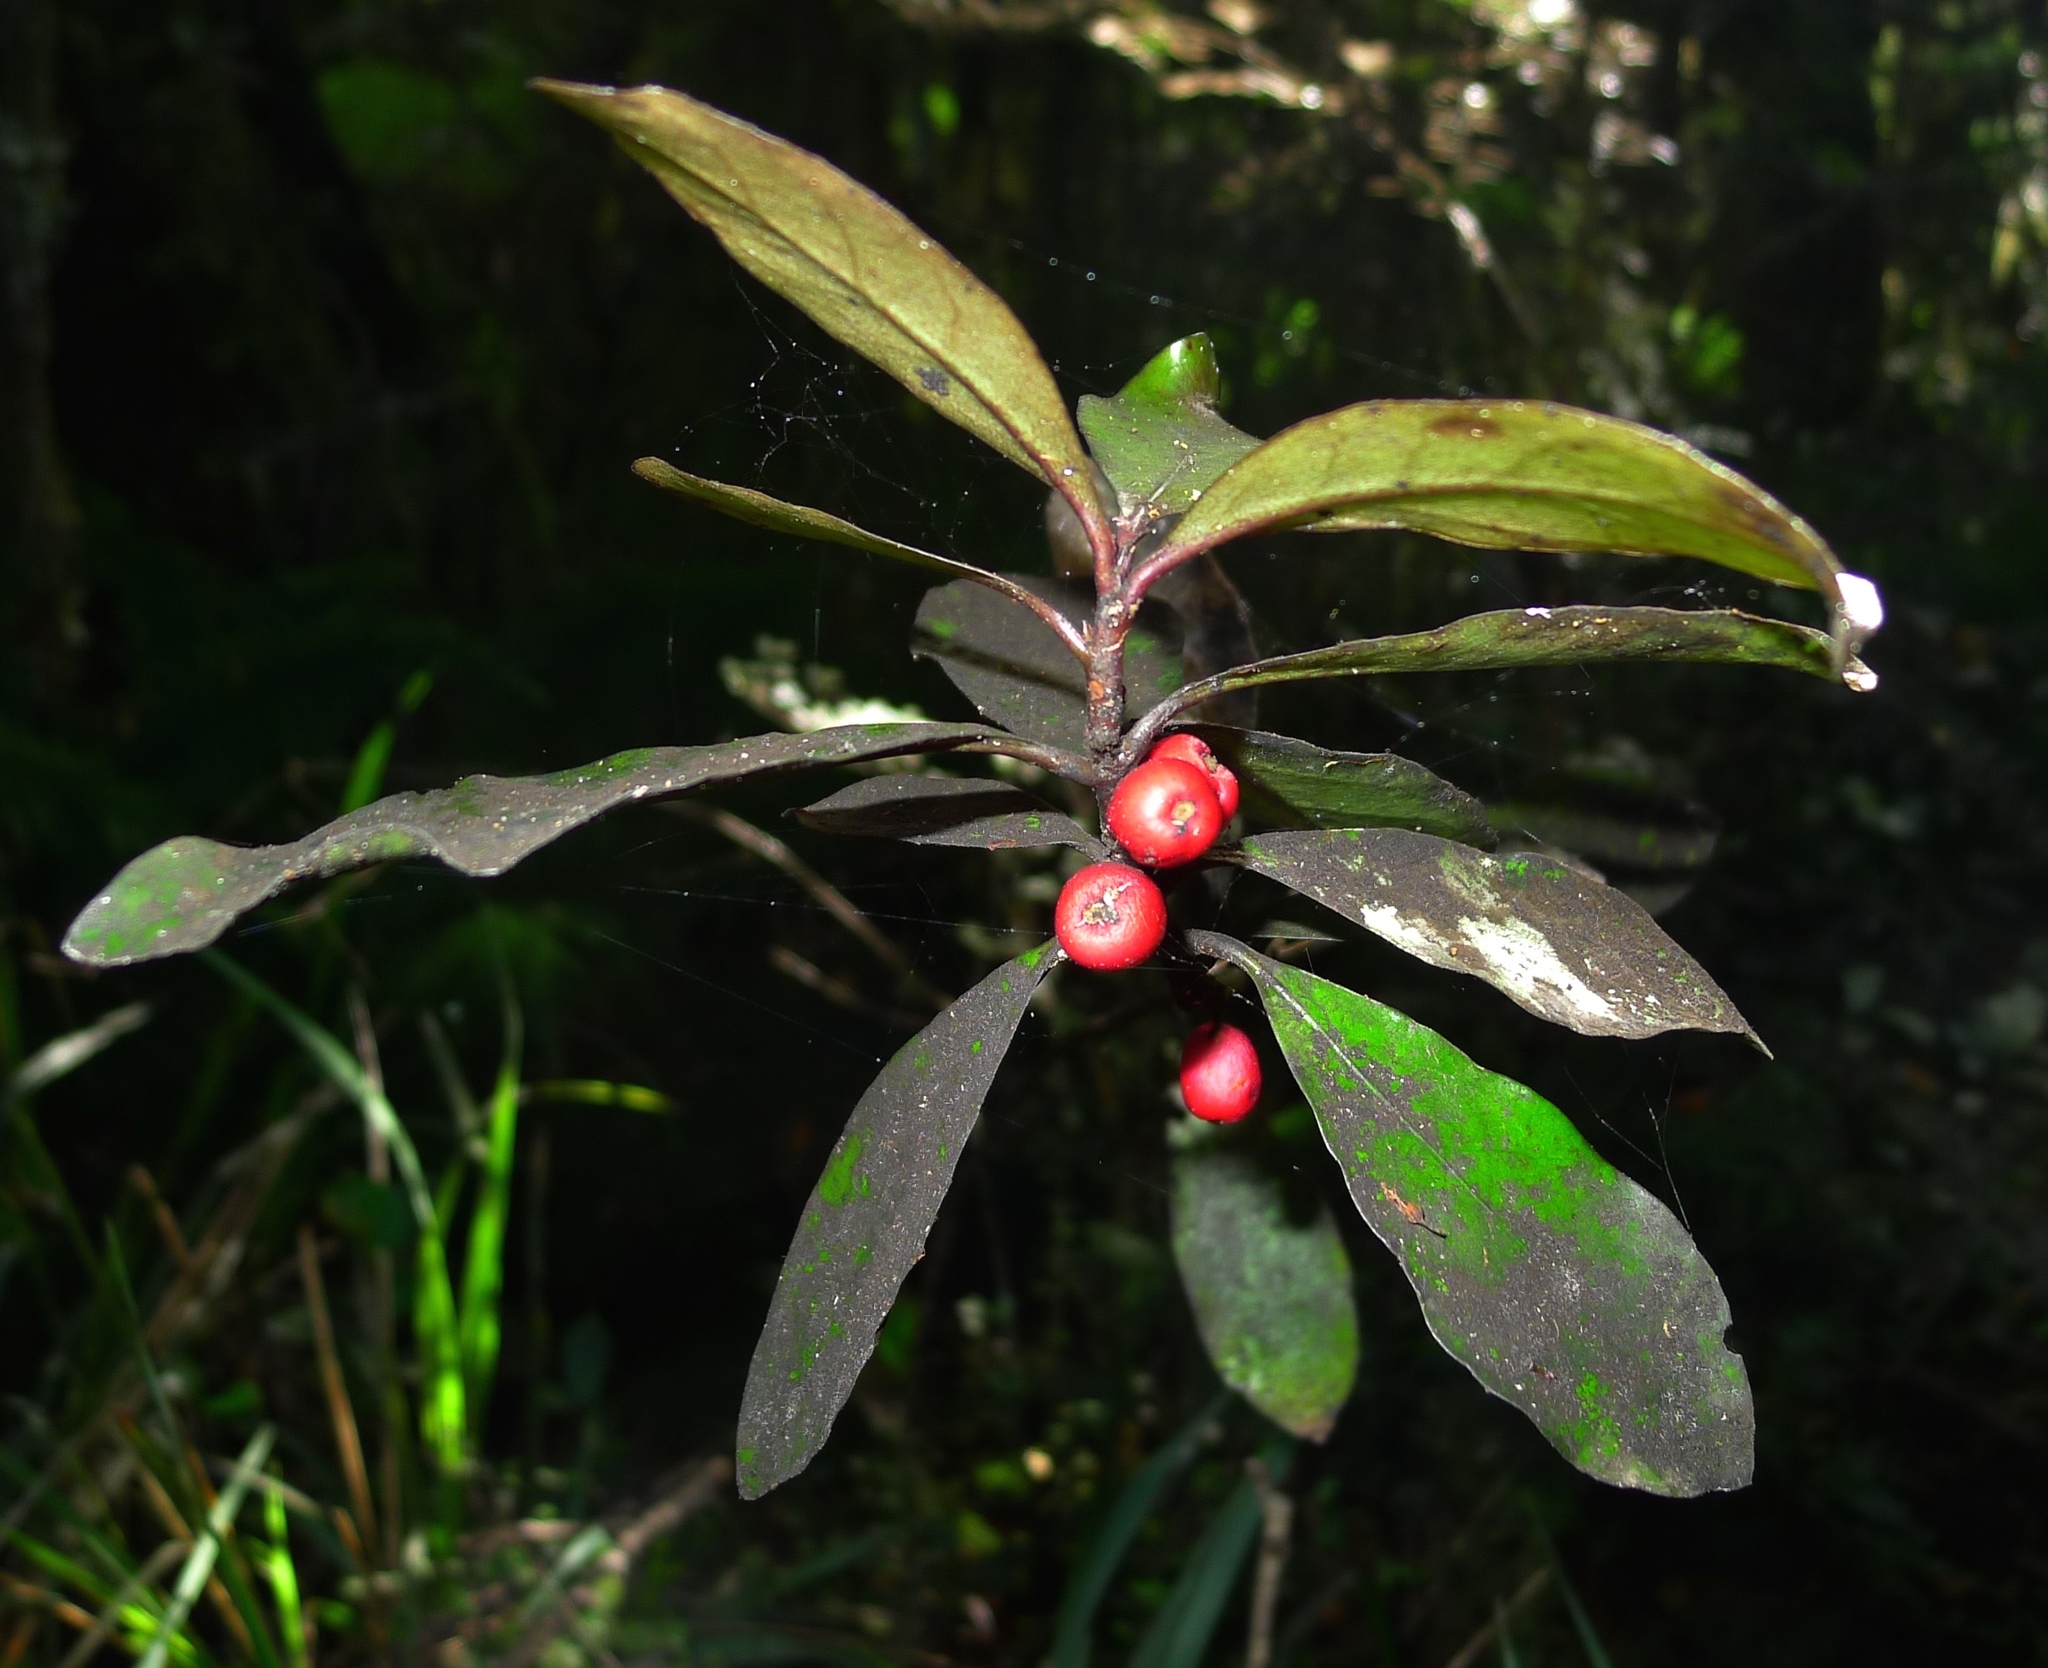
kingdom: Plantae
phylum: Tracheophyta
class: Magnoliopsida
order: Asterales
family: Alseuosmiaceae
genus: Alseuosmia
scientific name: Alseuosmia pusilla
